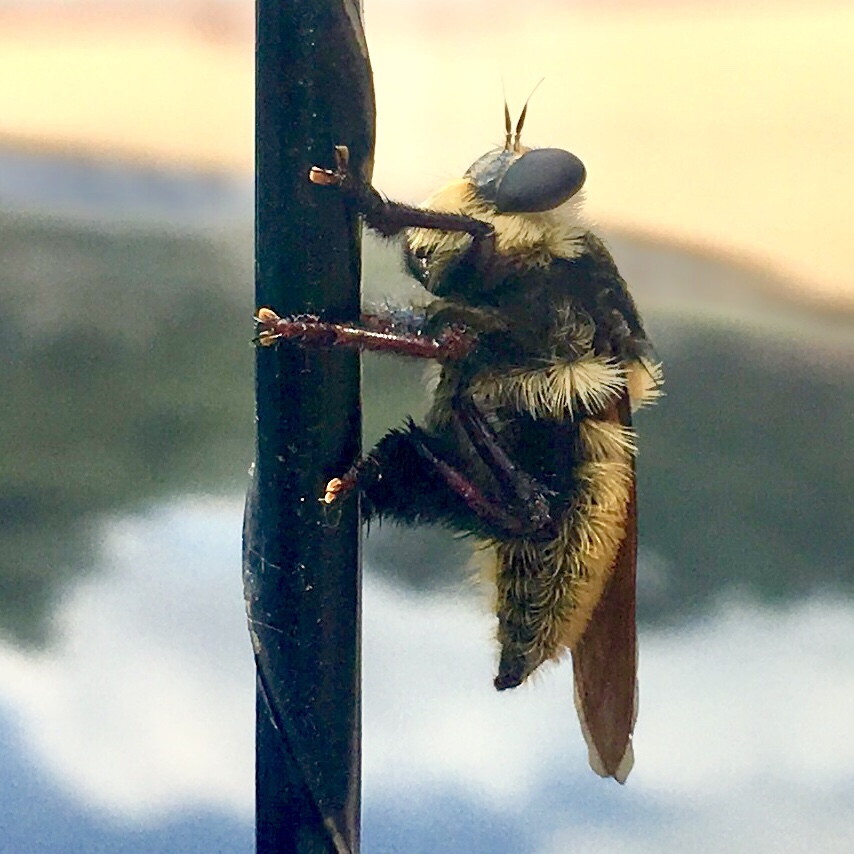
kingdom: Animalia
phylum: Arthropoda
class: Insecta
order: Diptera
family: Asilidae
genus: Mallophora
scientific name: Mallophora fautrix
